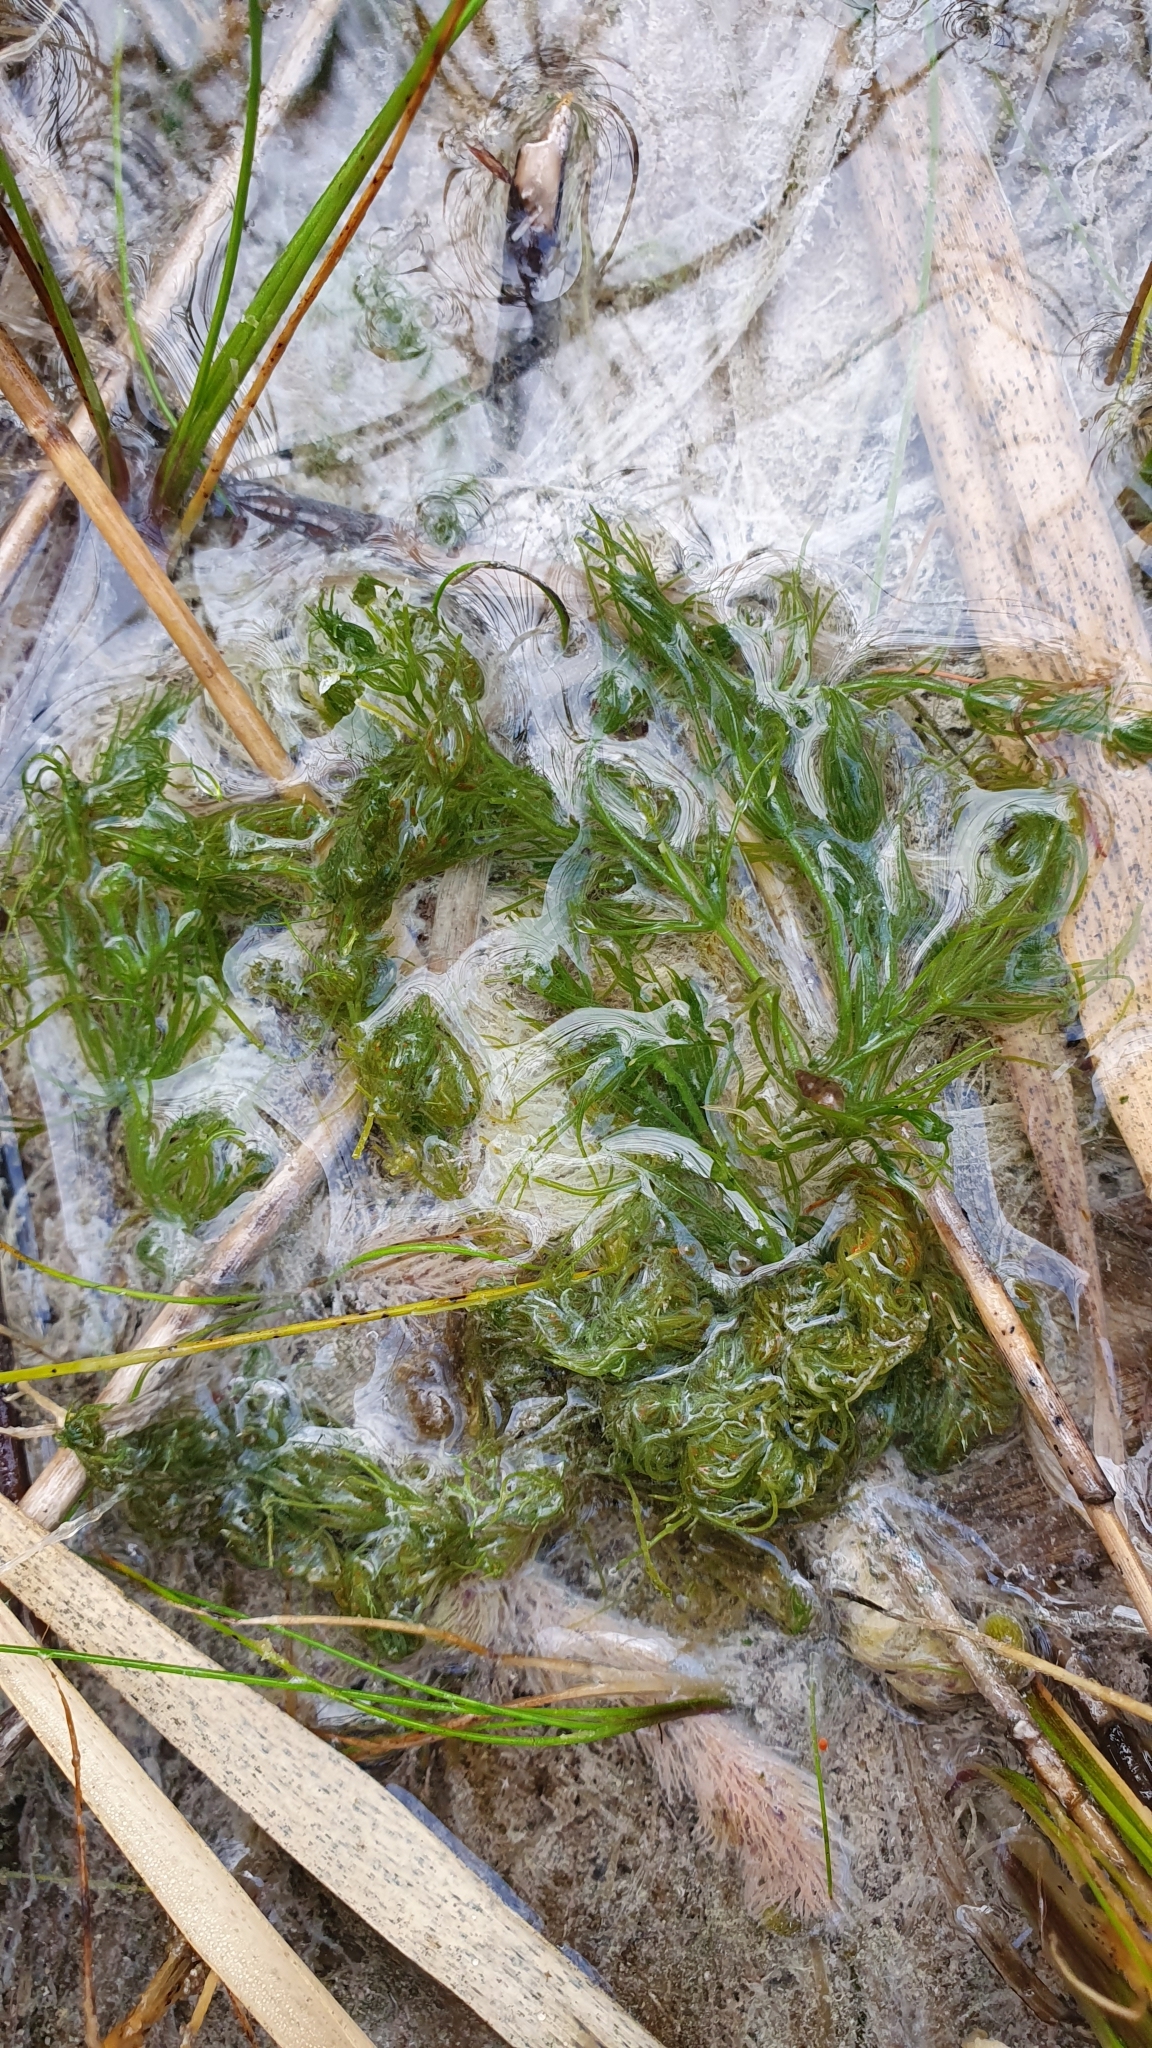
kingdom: Plantae
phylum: Charophyta
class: Charophyceae
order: Charales
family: Characeae
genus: Chara
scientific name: Chara vulgaris
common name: Common stonewort
